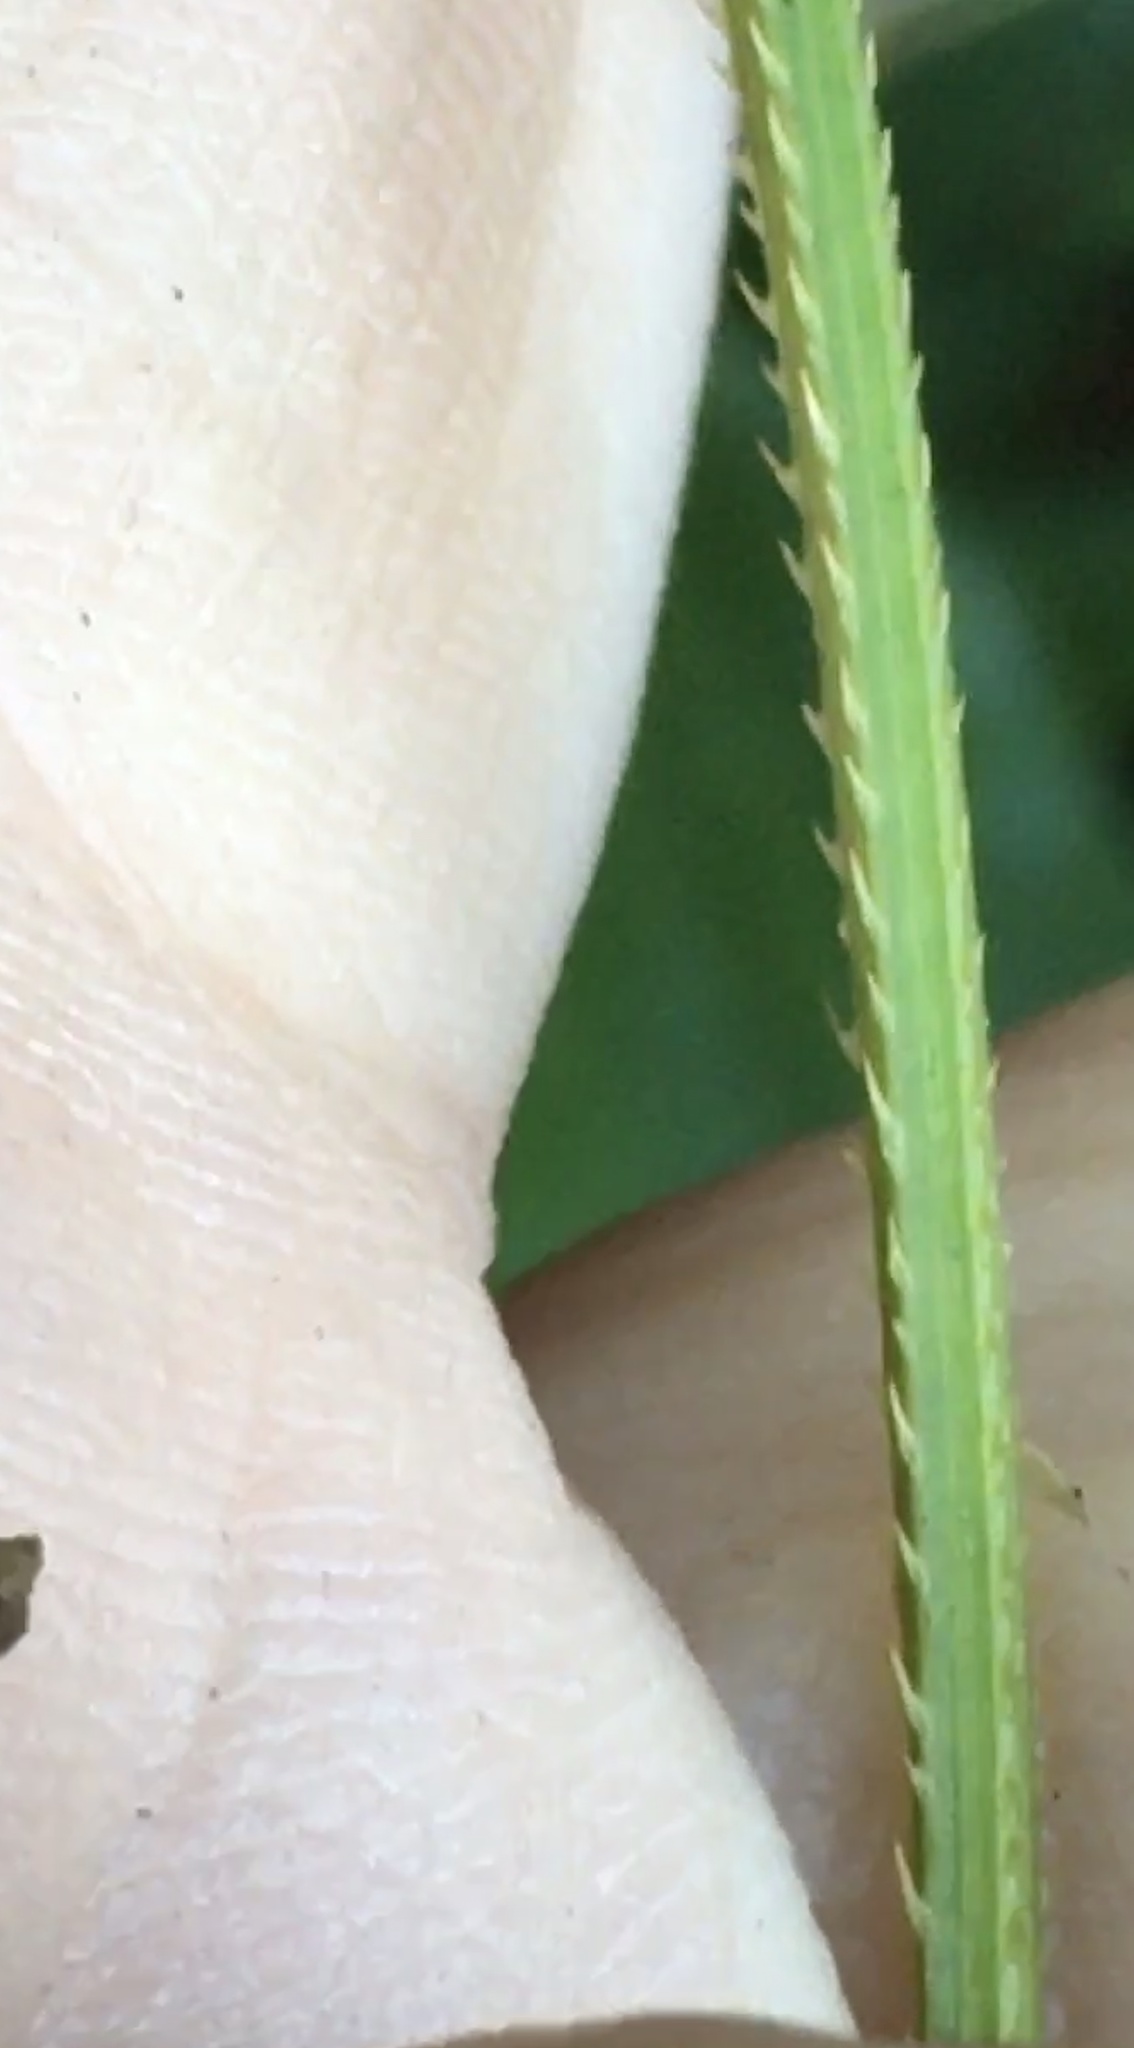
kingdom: Plantae
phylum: Tracheophyta
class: Magnoliopsida
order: Caryophyllales
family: Polygonaceae
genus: Persicaria
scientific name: Persicaria sagittata
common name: American tearthumb
